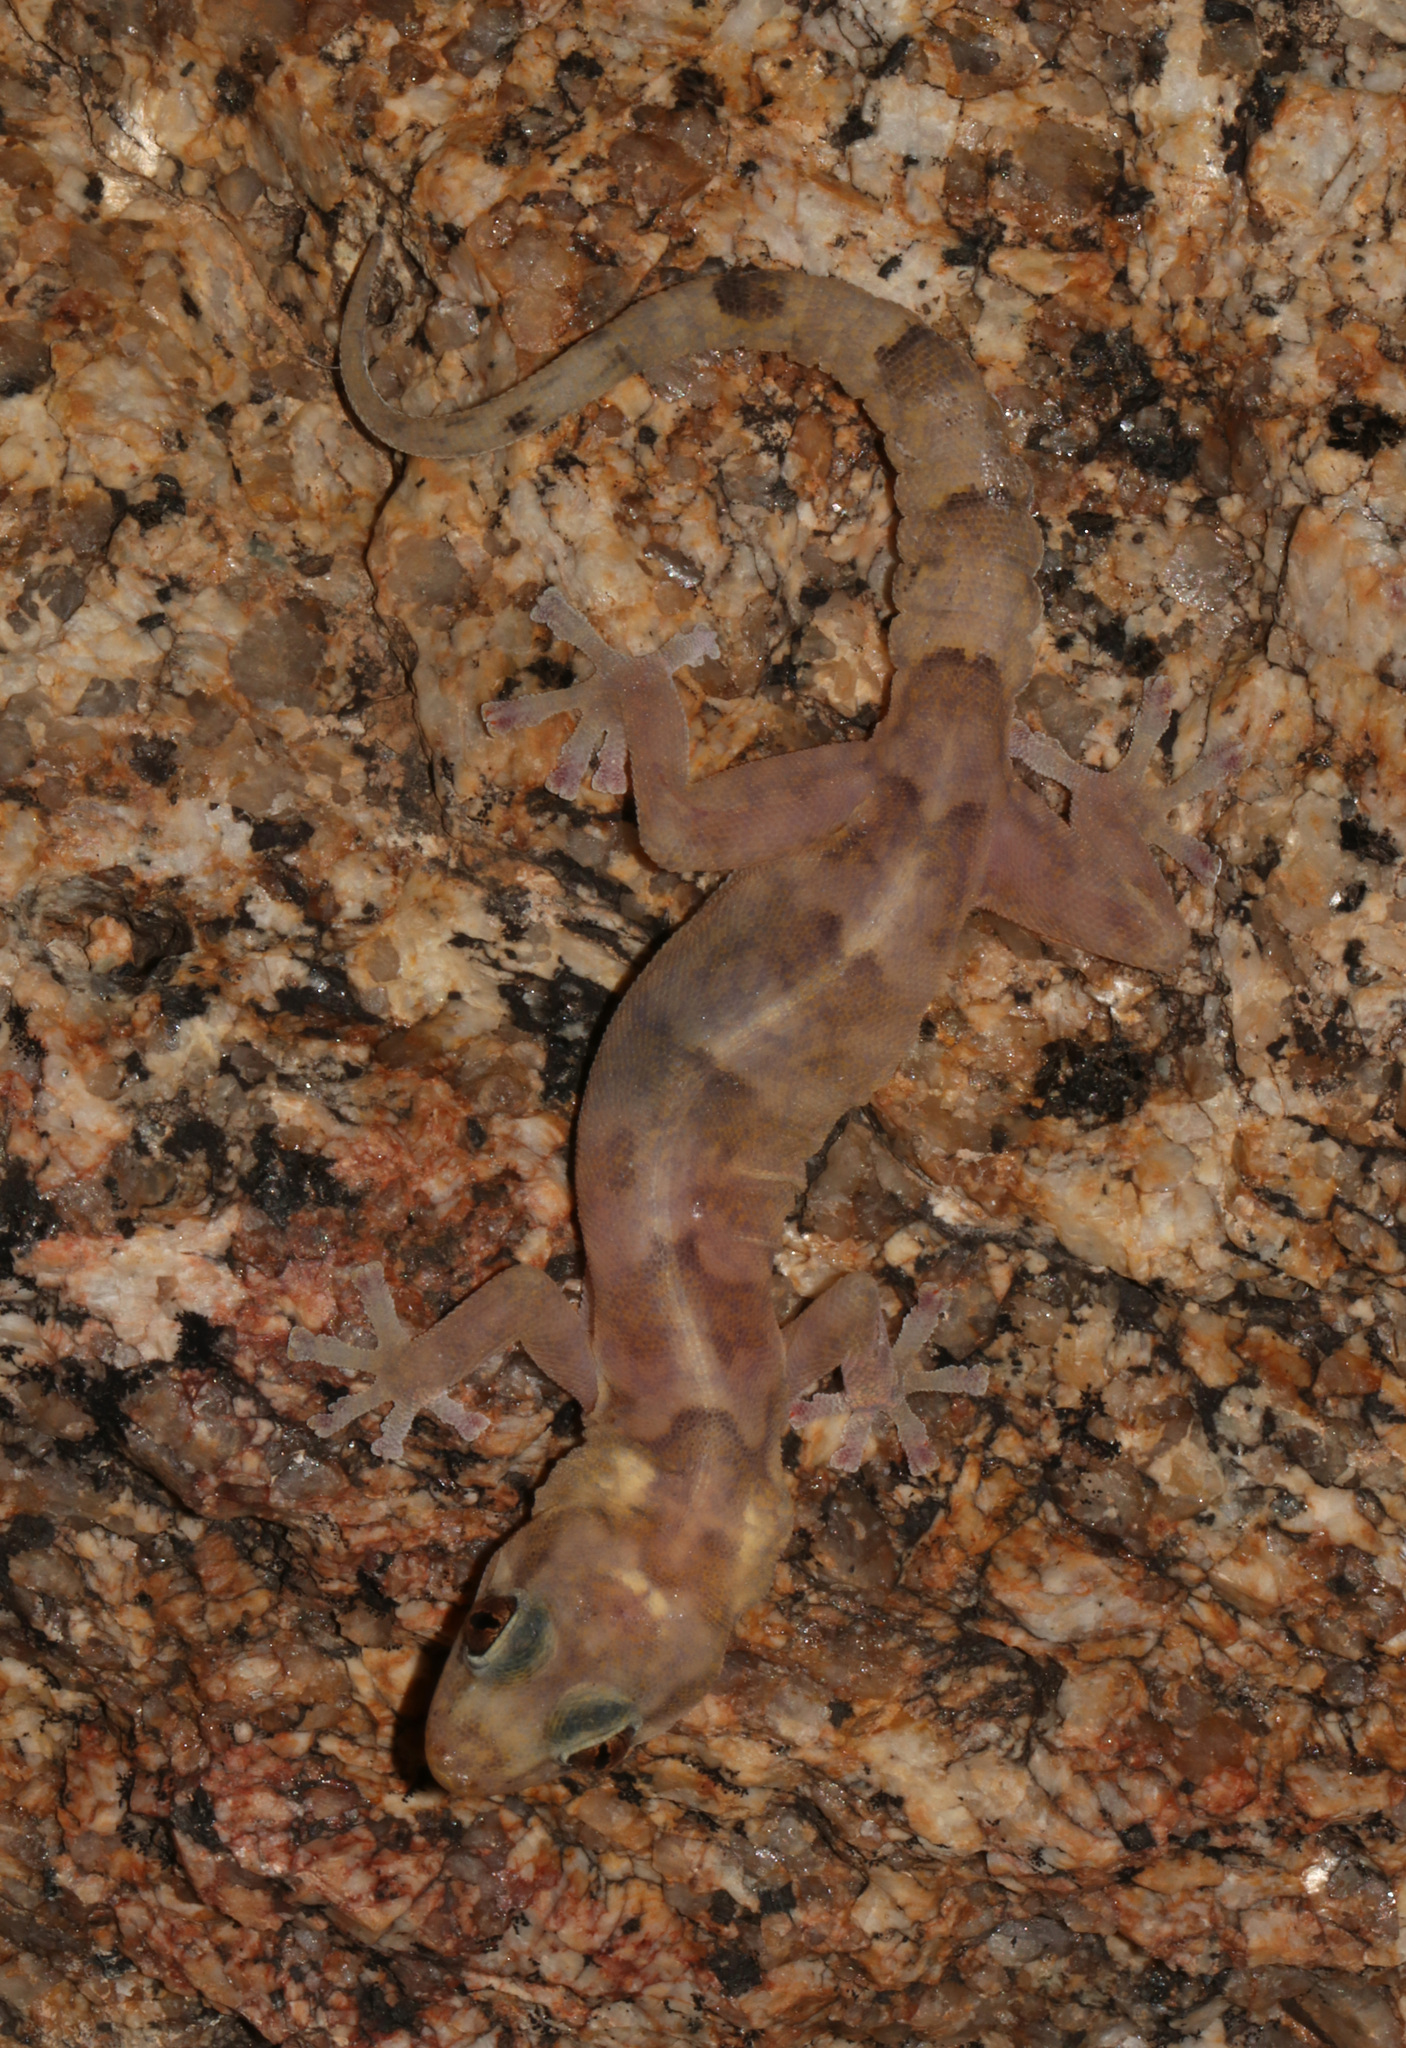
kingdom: Animalia
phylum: Chordata
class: Squamata
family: Gekkonidae
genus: Afroedura
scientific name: Afroedura africana
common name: African rock gecko
